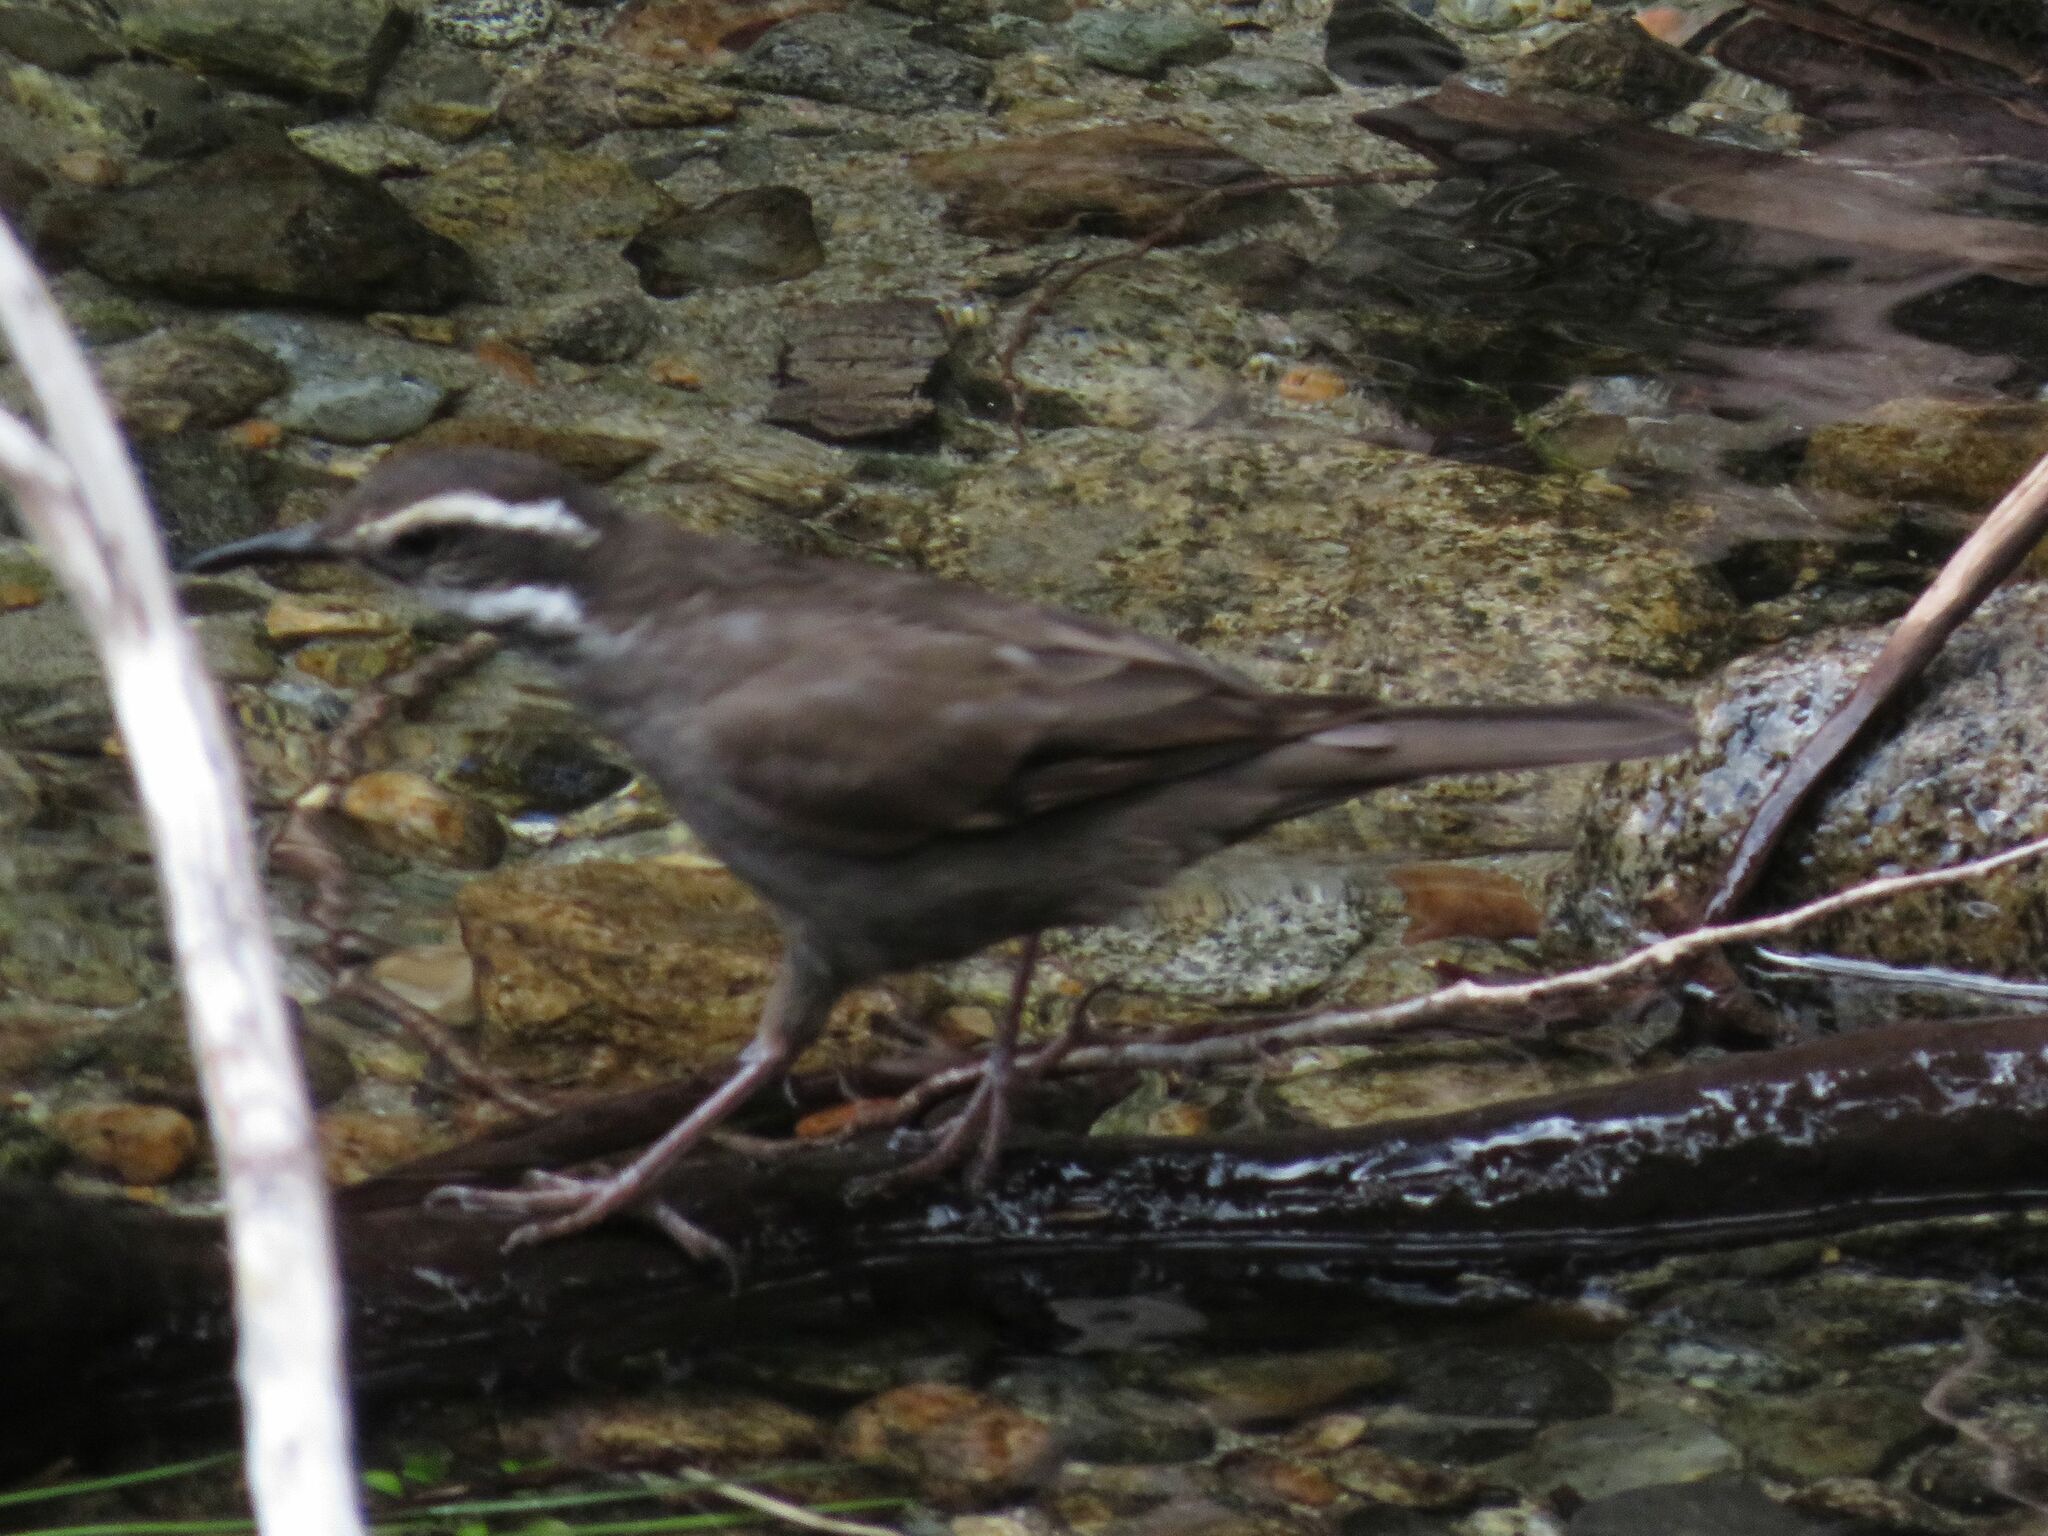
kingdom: Animalia
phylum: Chordata
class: Aves
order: Passeriformes
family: Furnariidae
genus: Cinclodes
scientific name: Cinclodes patagonicus
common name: Dark-bellied cinclodes
